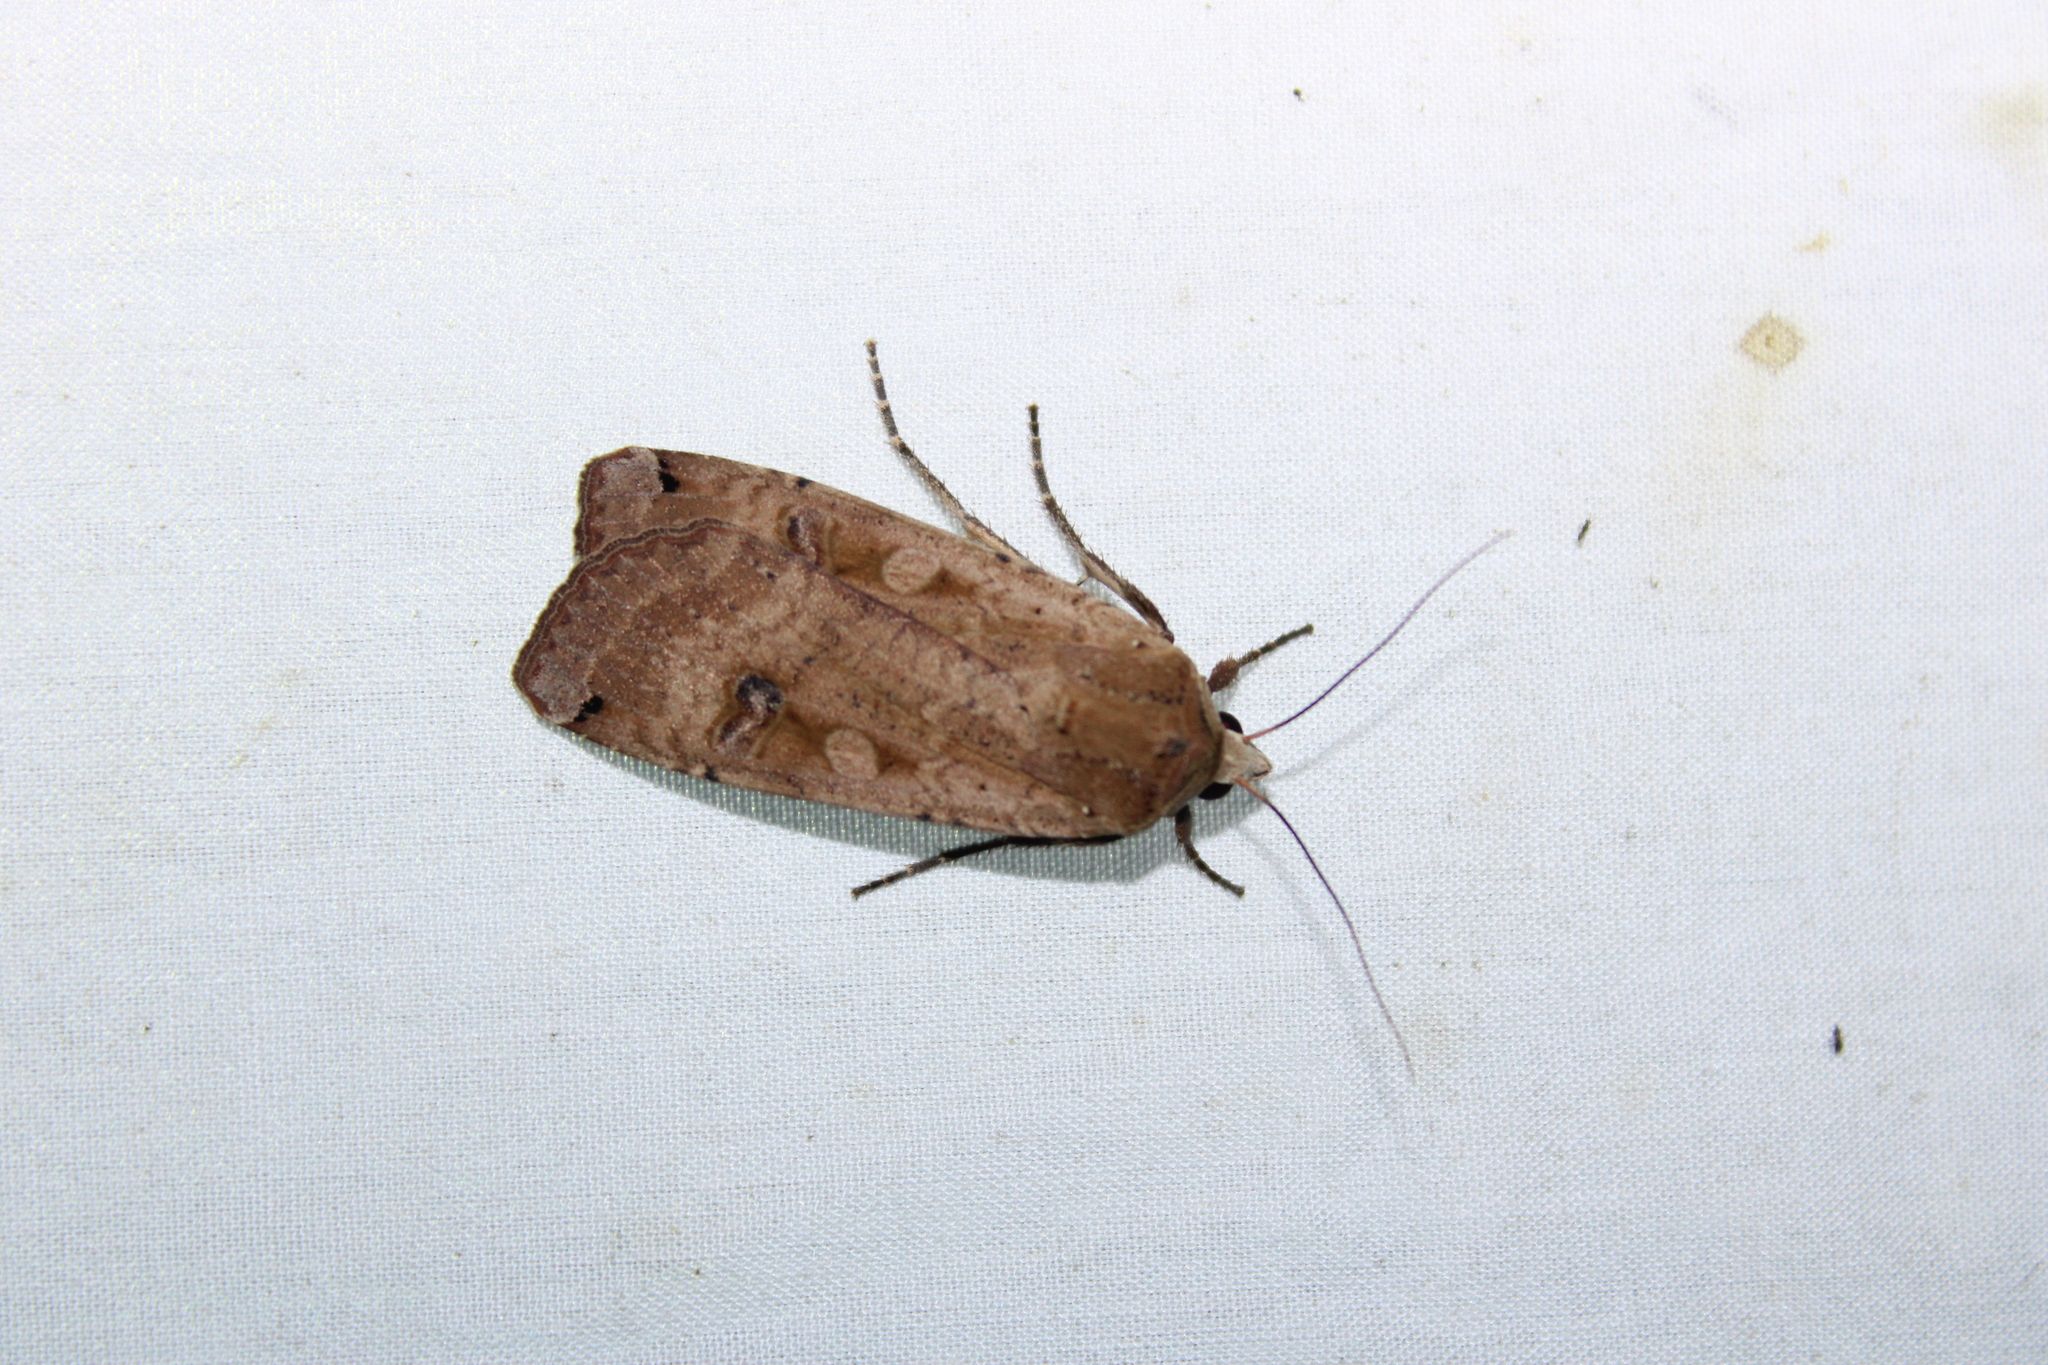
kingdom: Animalia
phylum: Arthropoda
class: Insecta
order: Lepidoptera
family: Noctuidae
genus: Noctua
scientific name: Noctua pronuba
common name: Large yellow underwing
